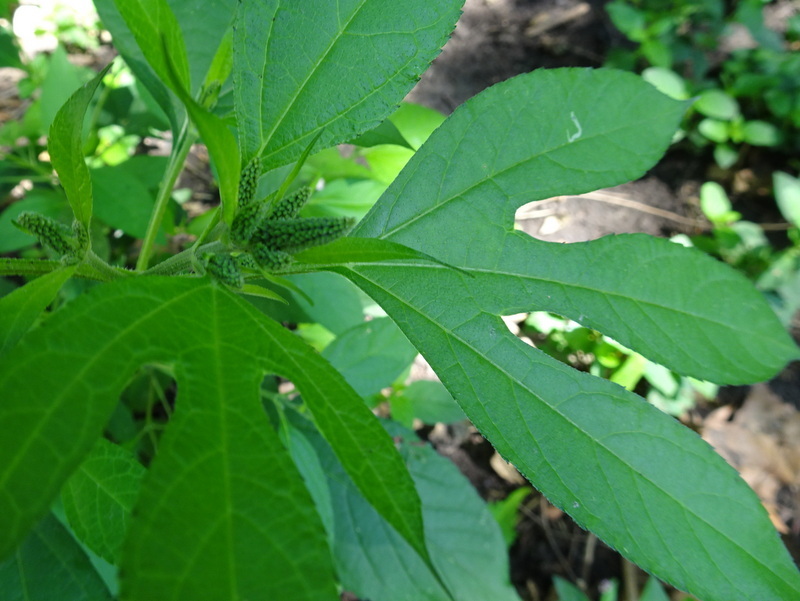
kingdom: Plantae
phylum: Tracheophyta
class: Magnoliopsida
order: Asterales
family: Asteraceae
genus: Ambrosia
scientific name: Ambrosia trifida
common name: Giant ragweed
